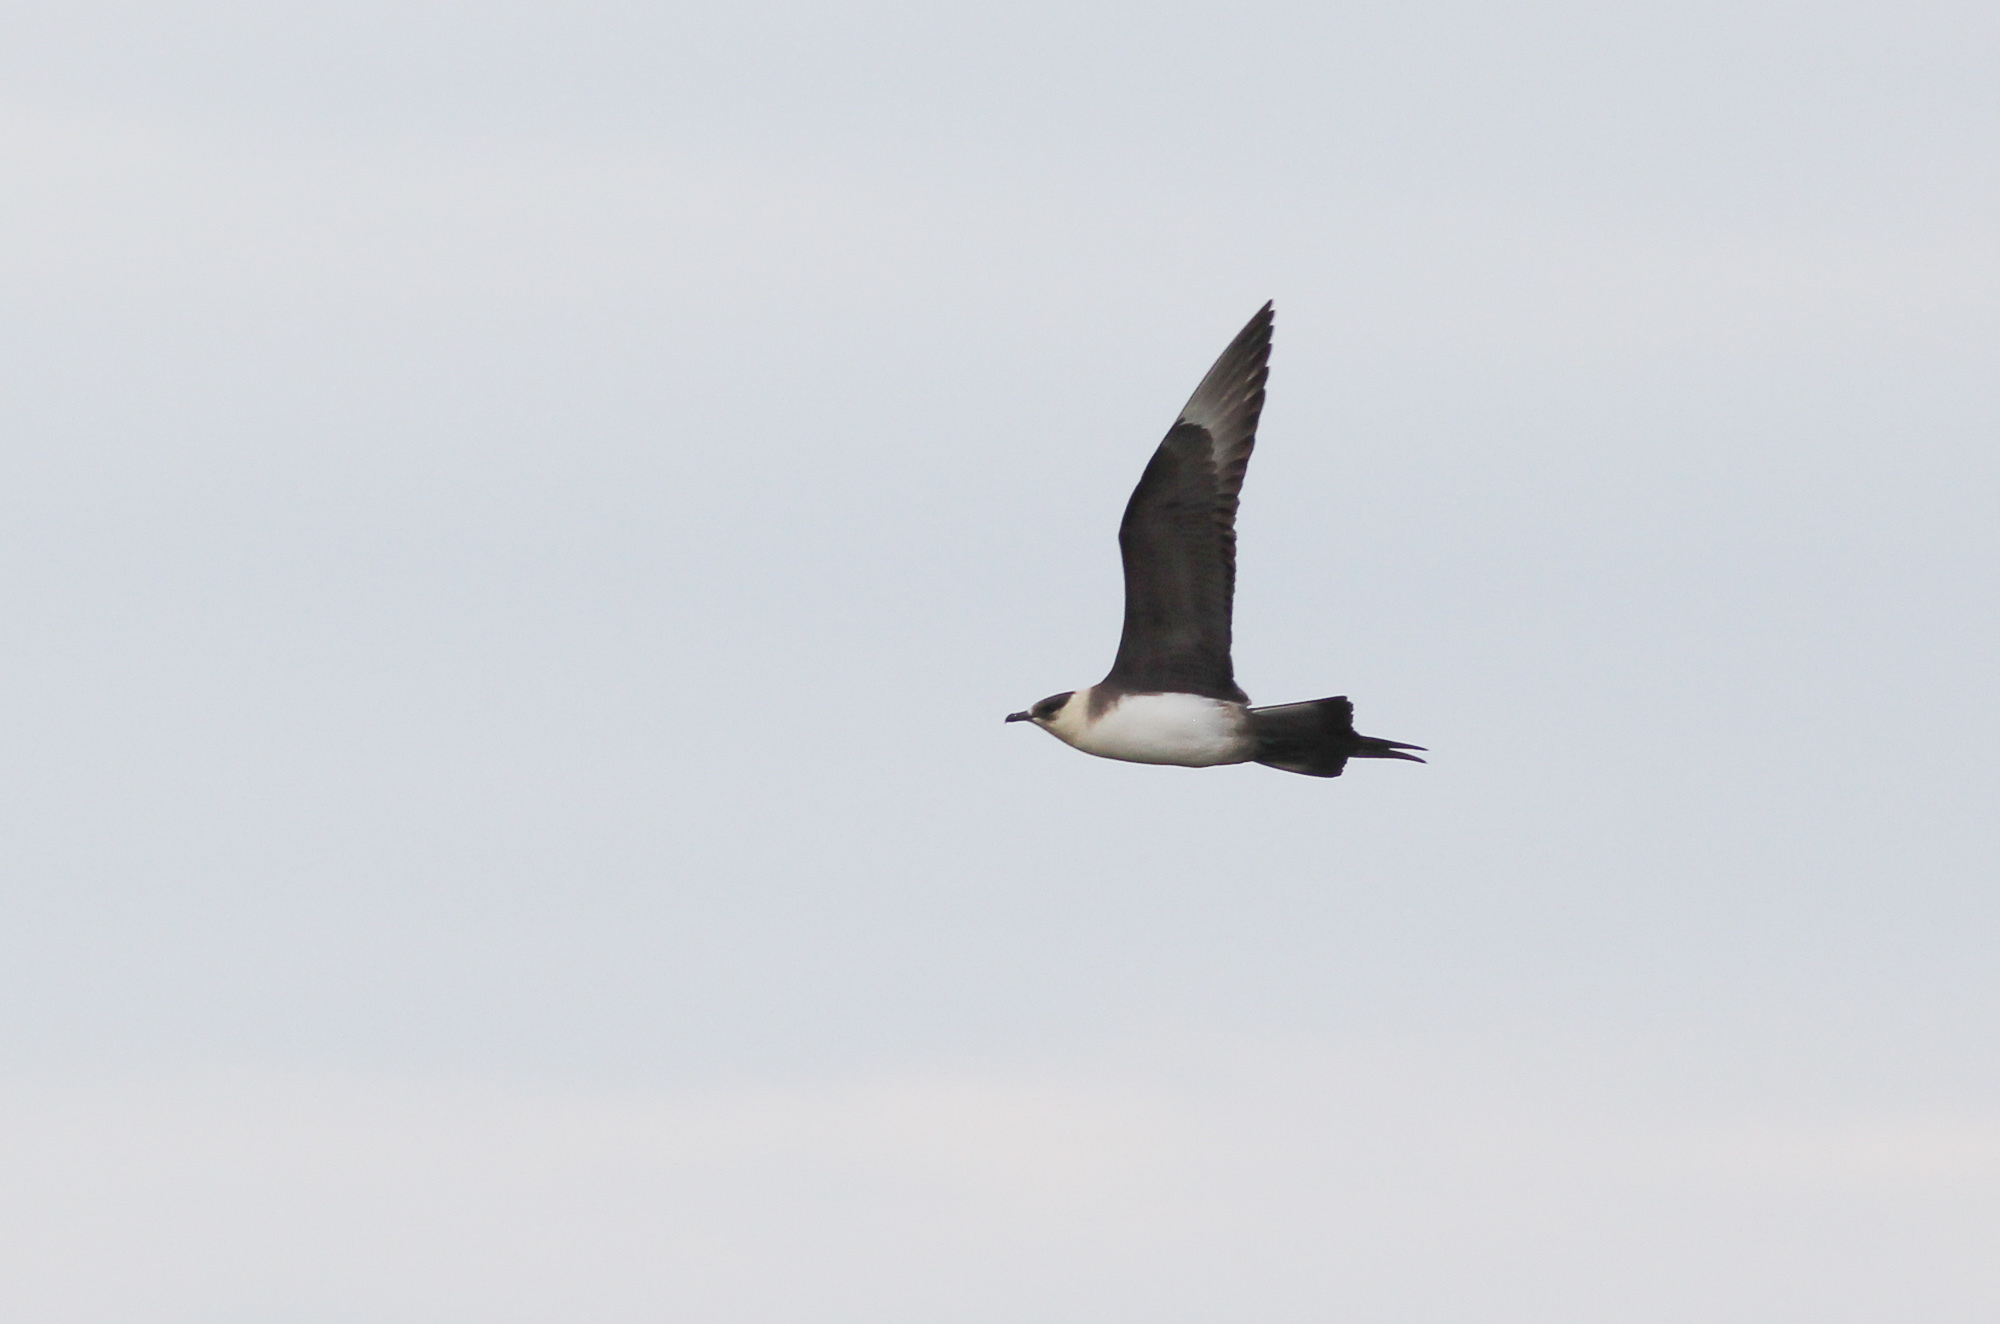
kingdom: Animalia
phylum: Chordata
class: Aves
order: Charadriiformes
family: Stercorariidae
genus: Stercorarius
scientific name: Stercorarius parasiticus
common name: Parasitic jaeger
